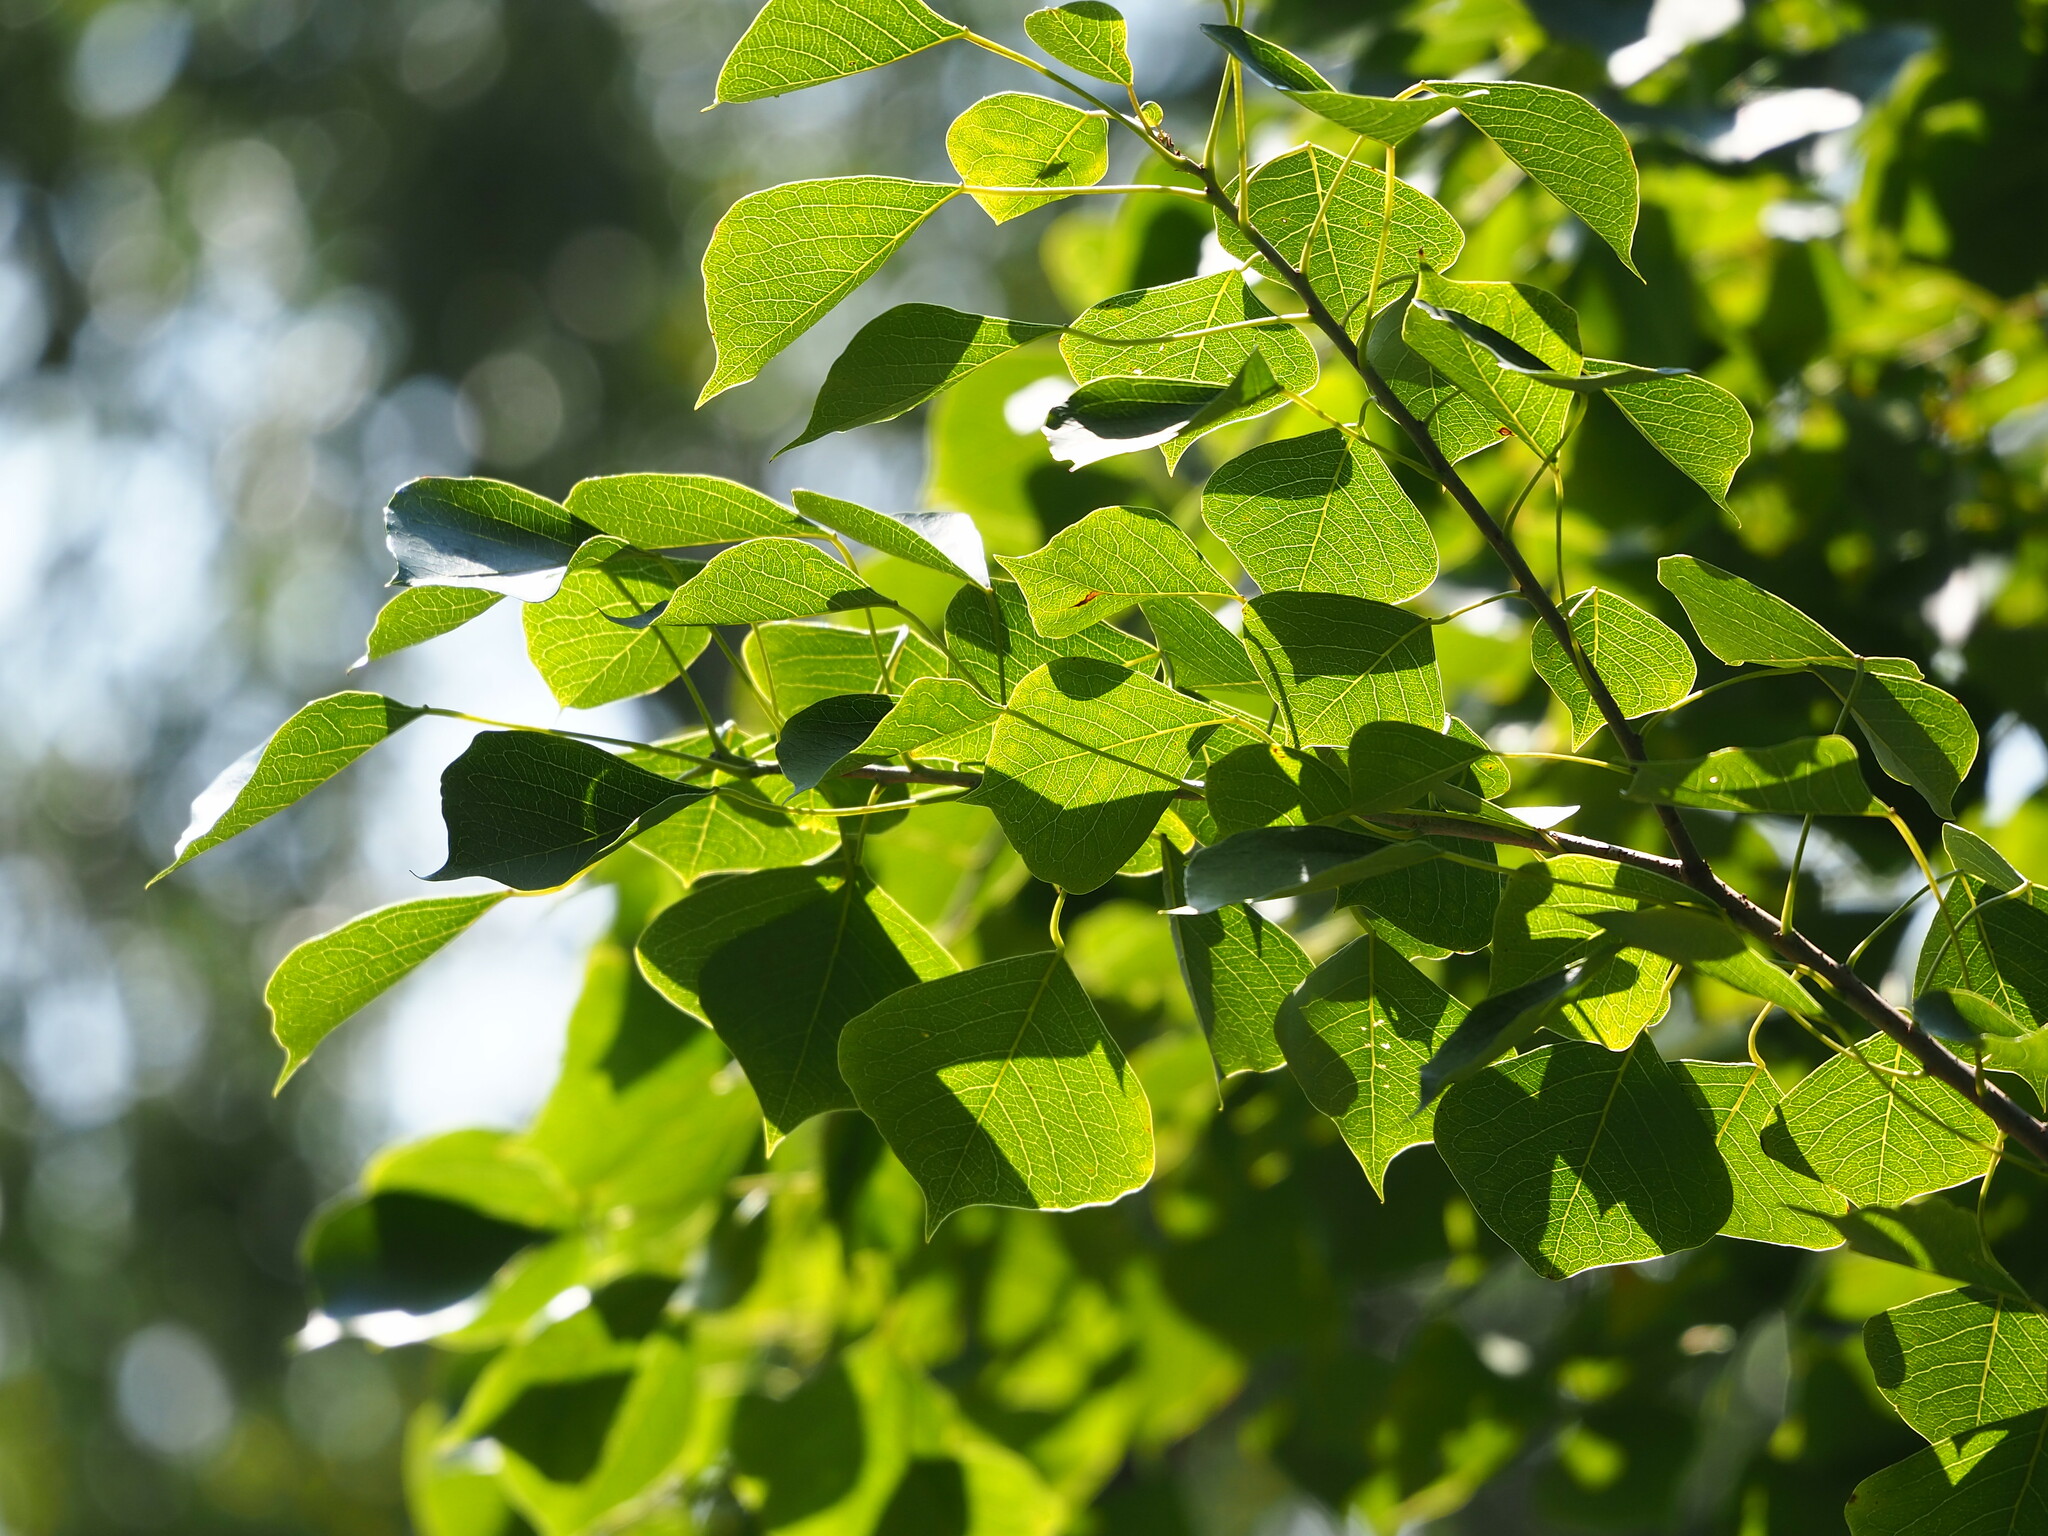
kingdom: Plantae
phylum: Tracheophyta
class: Magnoliopsida
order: Malpighiales
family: Euphorbiaceae
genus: Triadica
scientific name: Triadica sebifera
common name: Chinese tallow
